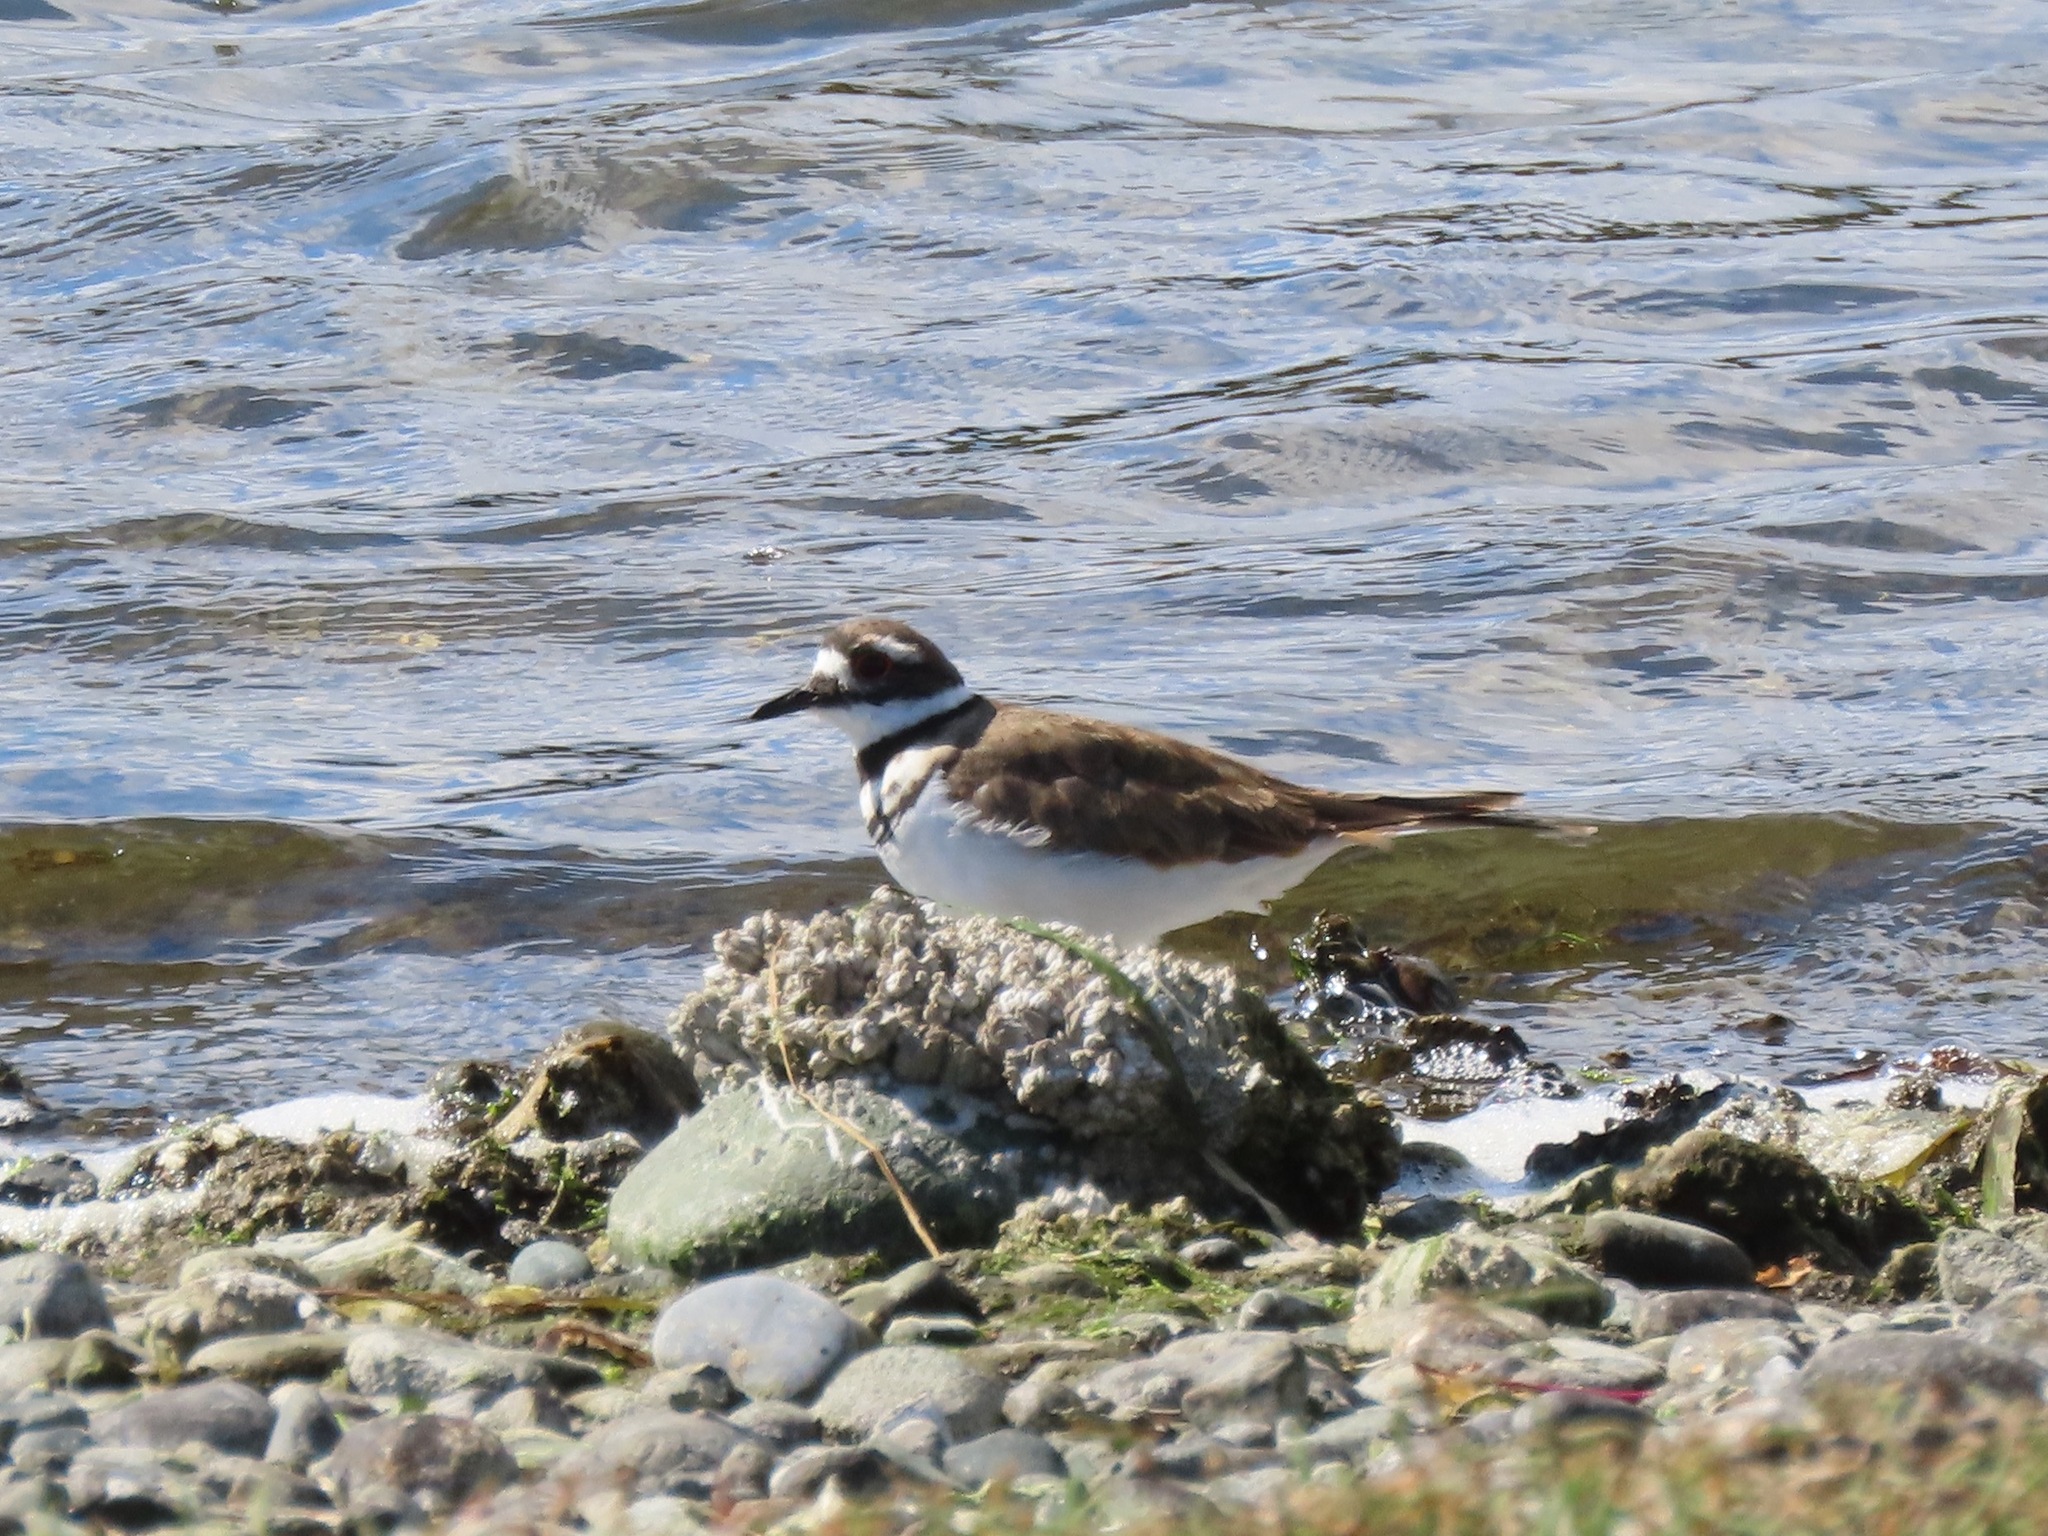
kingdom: Animalia
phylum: Chordata
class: Aves
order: Charadriiformes
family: Charadriidae
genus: Charadrius
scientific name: Charadrius vociferus
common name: Killdeer
